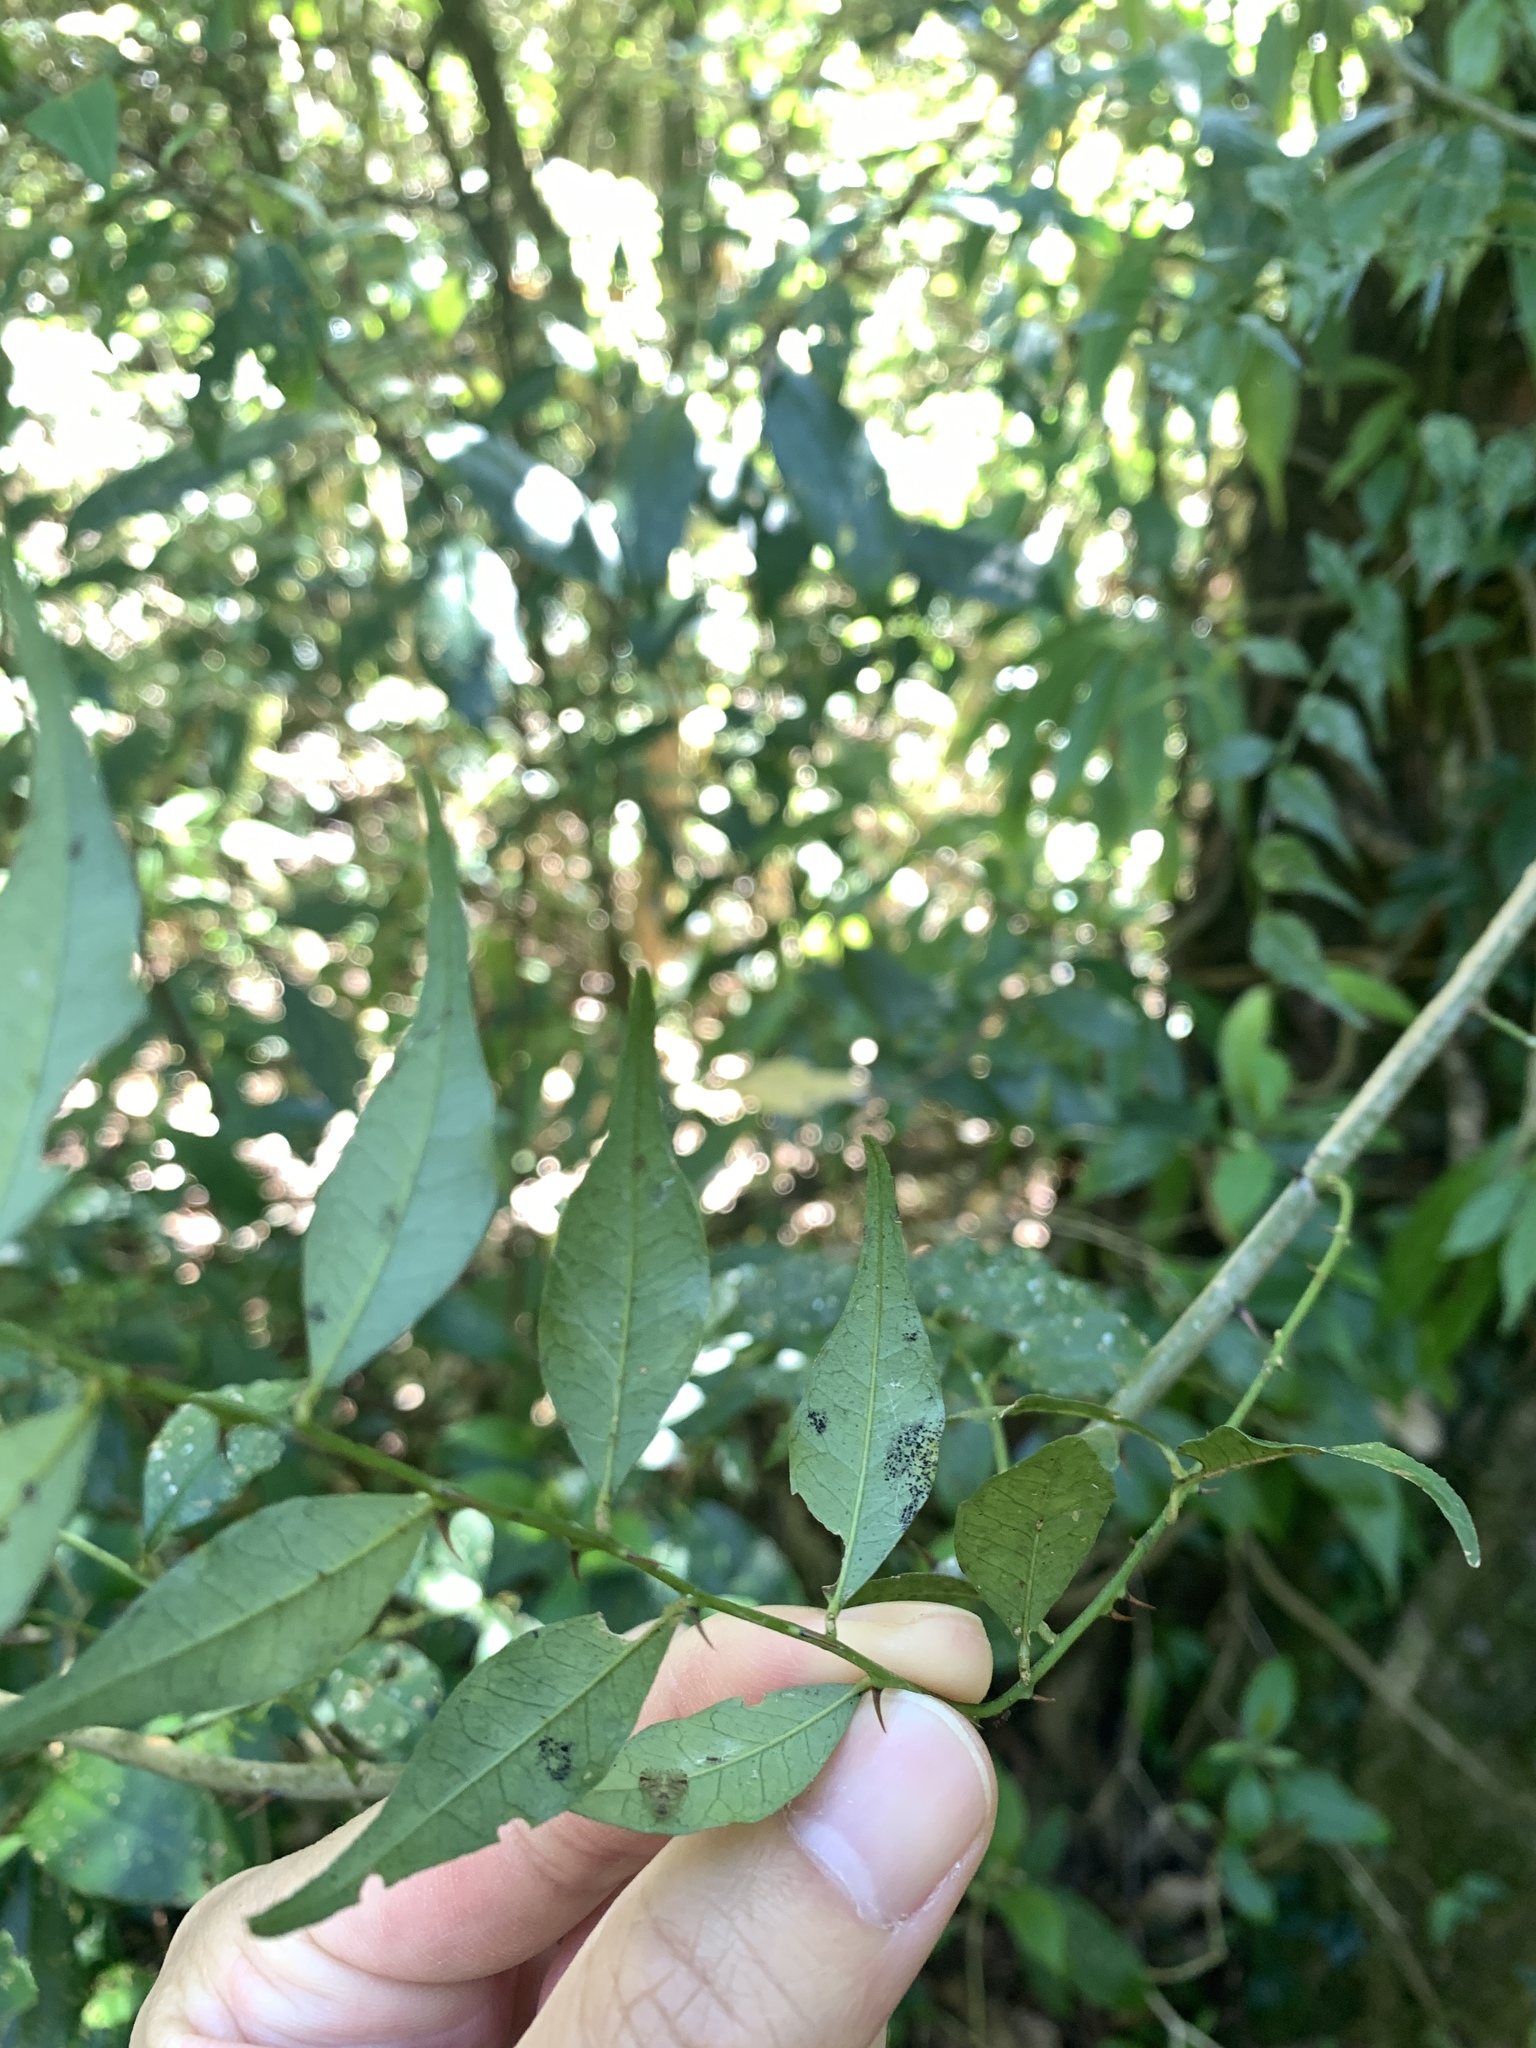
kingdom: Plantae
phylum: Tracheophyta
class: Magnoliopsida
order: Sapindales
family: Rutaceae
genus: Zanthoxylum
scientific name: Zanthoxylum scandens
